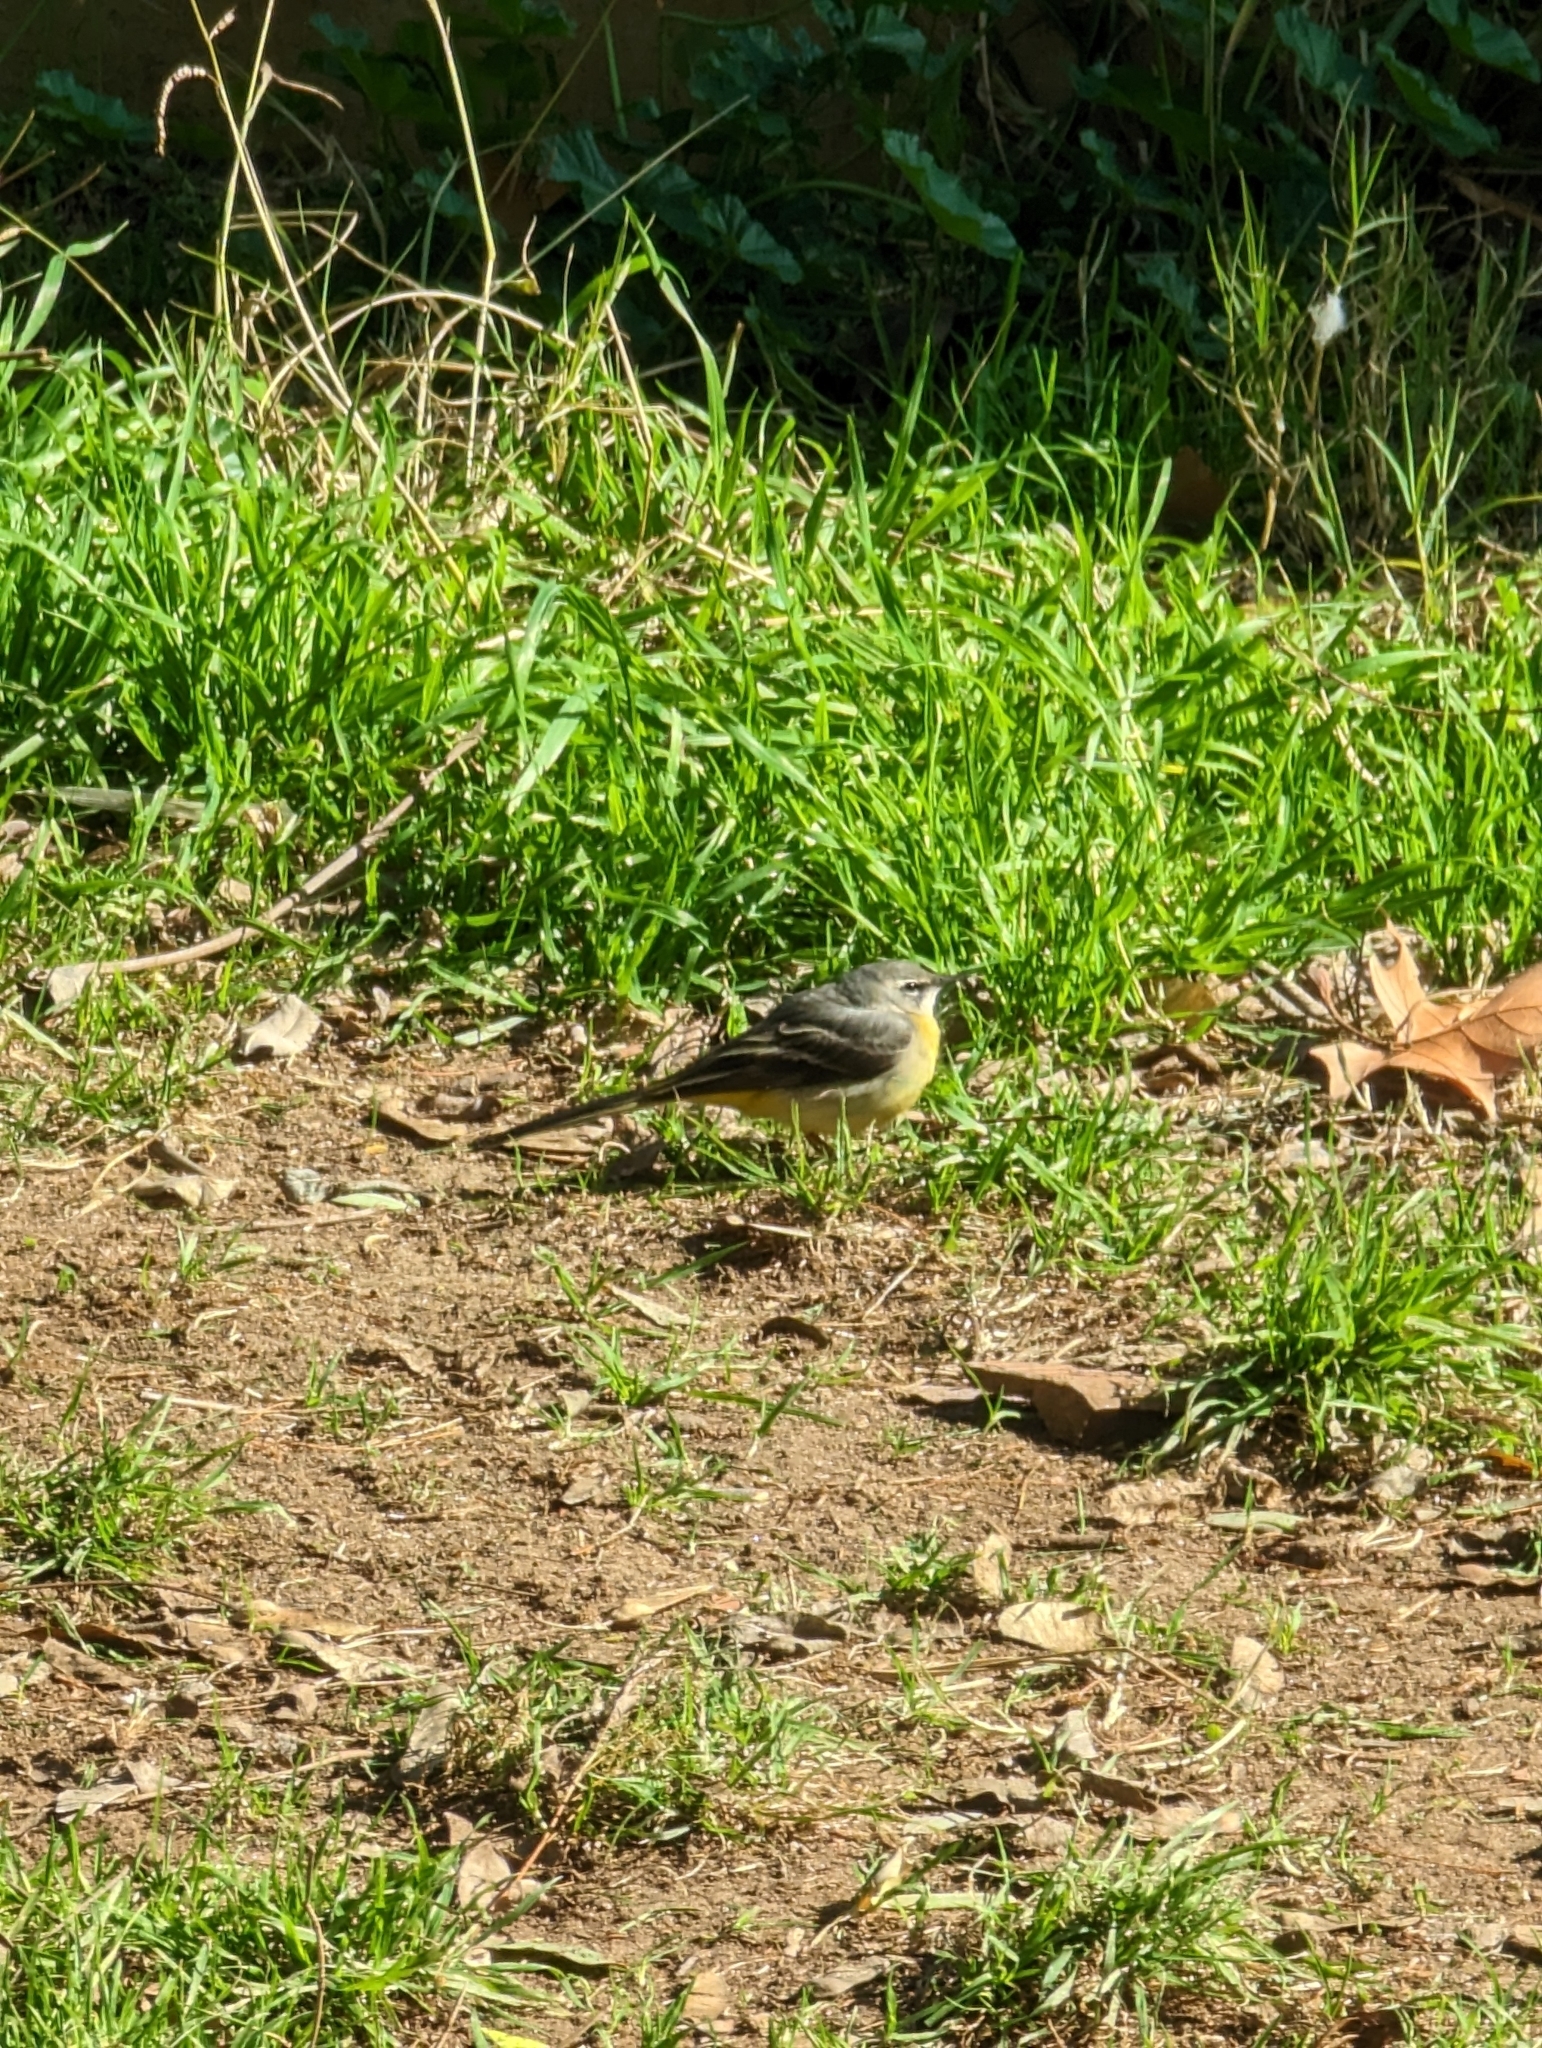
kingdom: Animalia
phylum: Chordata
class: Aves
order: Passeriformes
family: Motacillidae
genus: Motacilla
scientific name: Motacilla cinerea
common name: Grey wagtail
